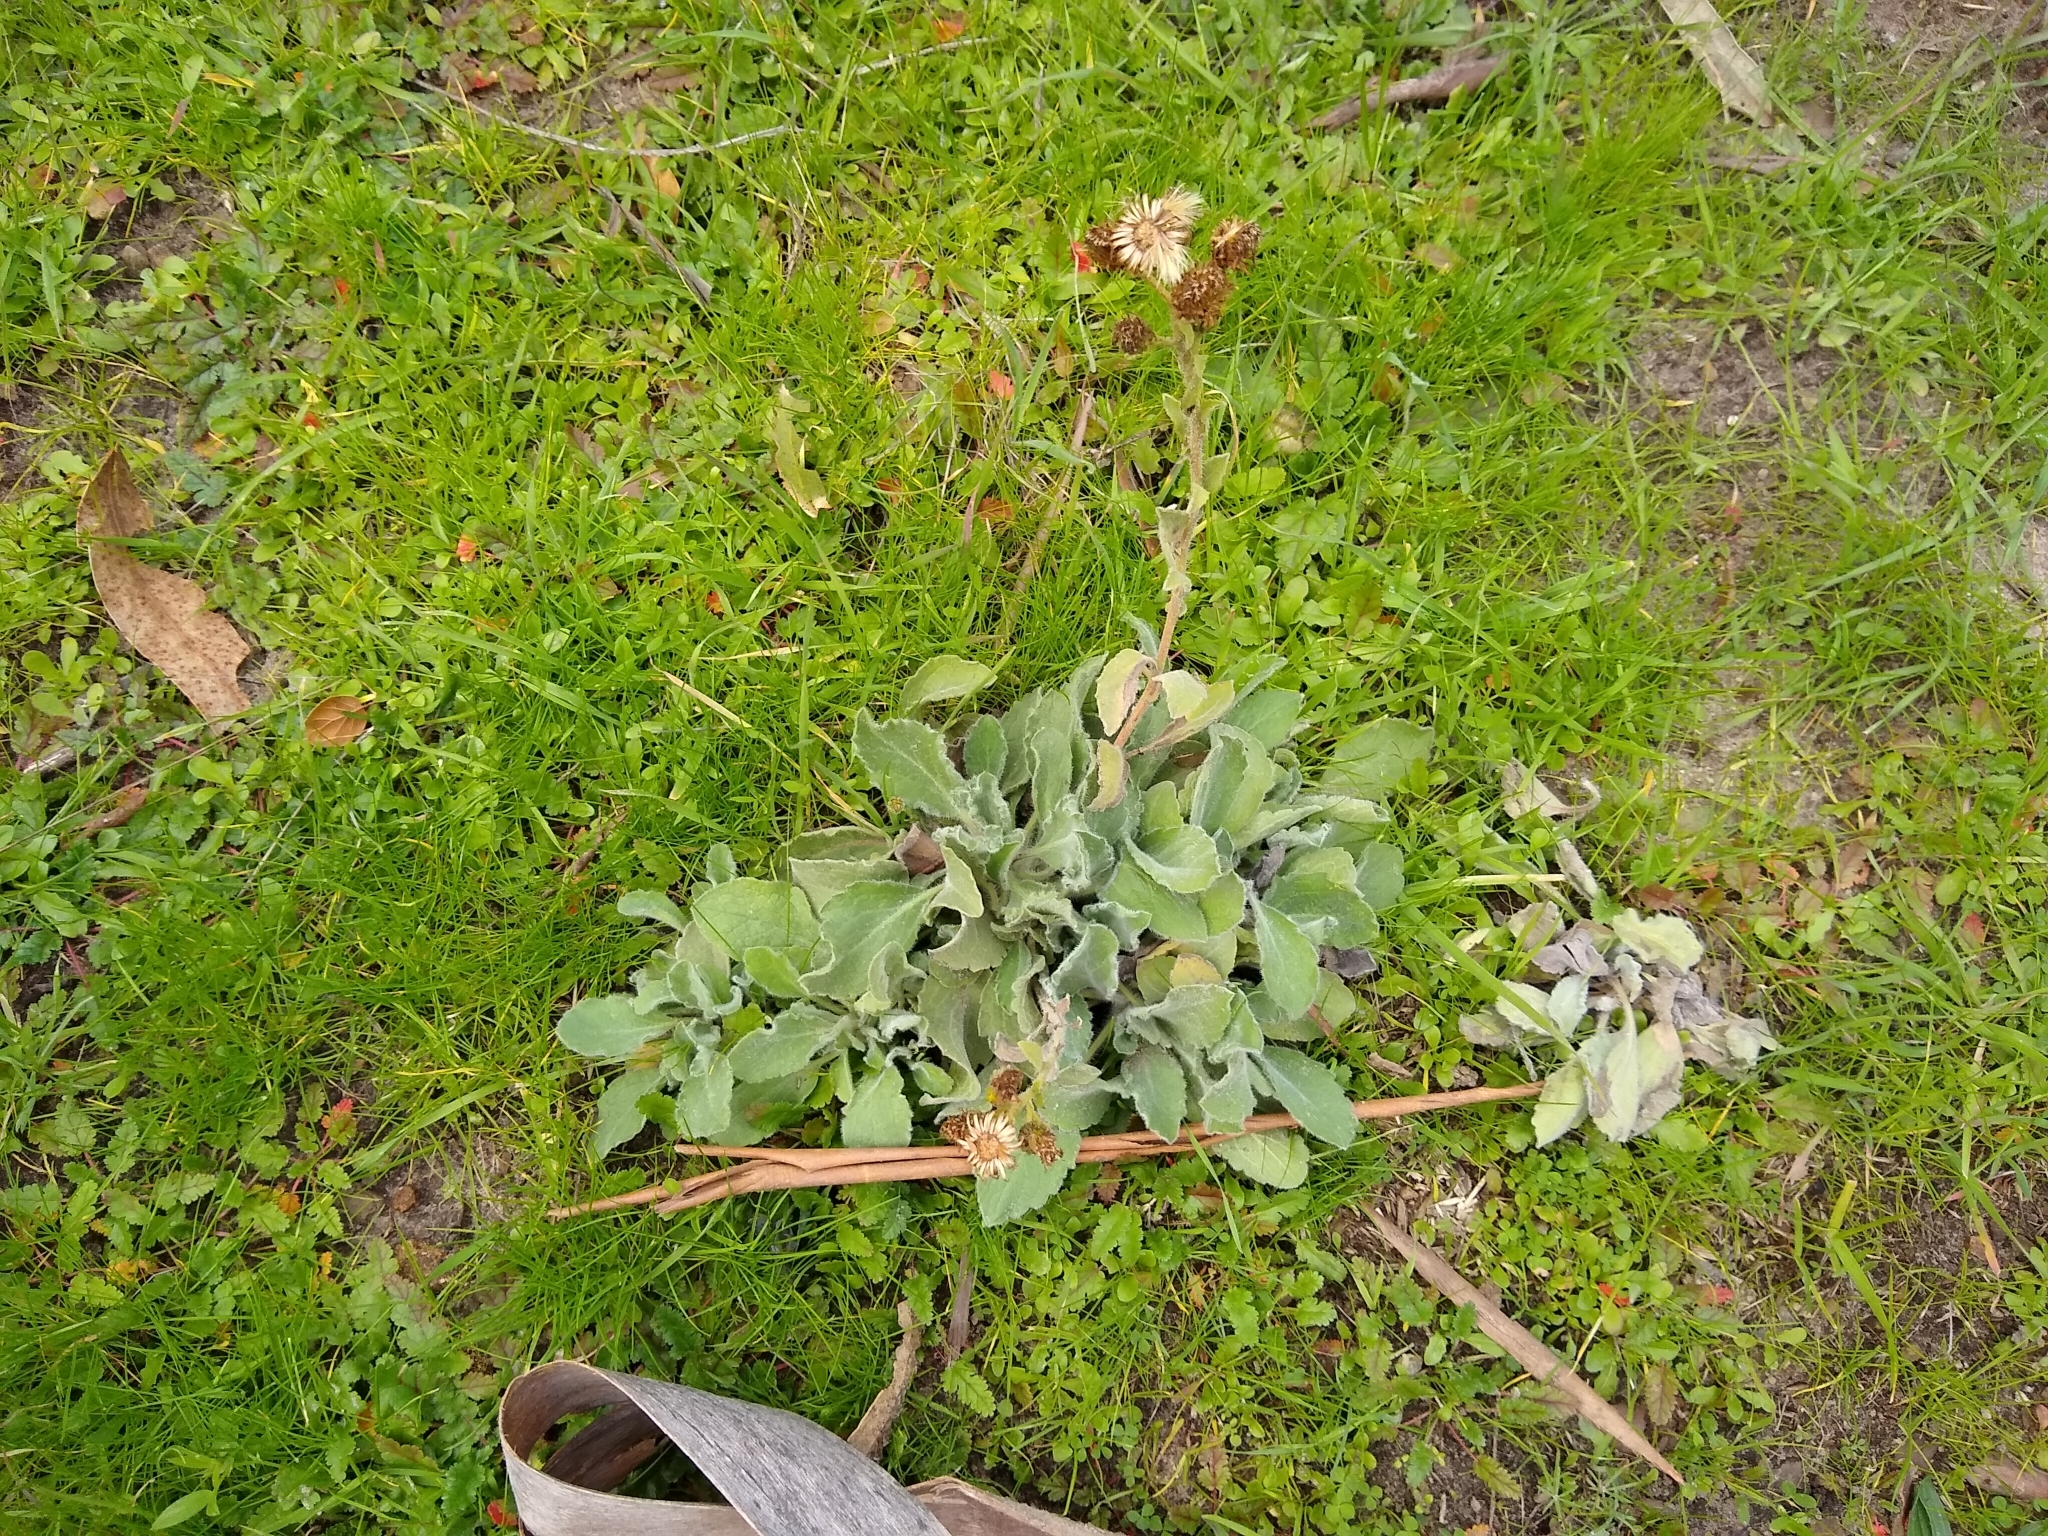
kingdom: Plantae
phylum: Tracheophyta
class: Magnoliopsida
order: Asterales
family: Asteraceae
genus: Heterotheca
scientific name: Heterotheca grandiflora
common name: Telegraphweed
